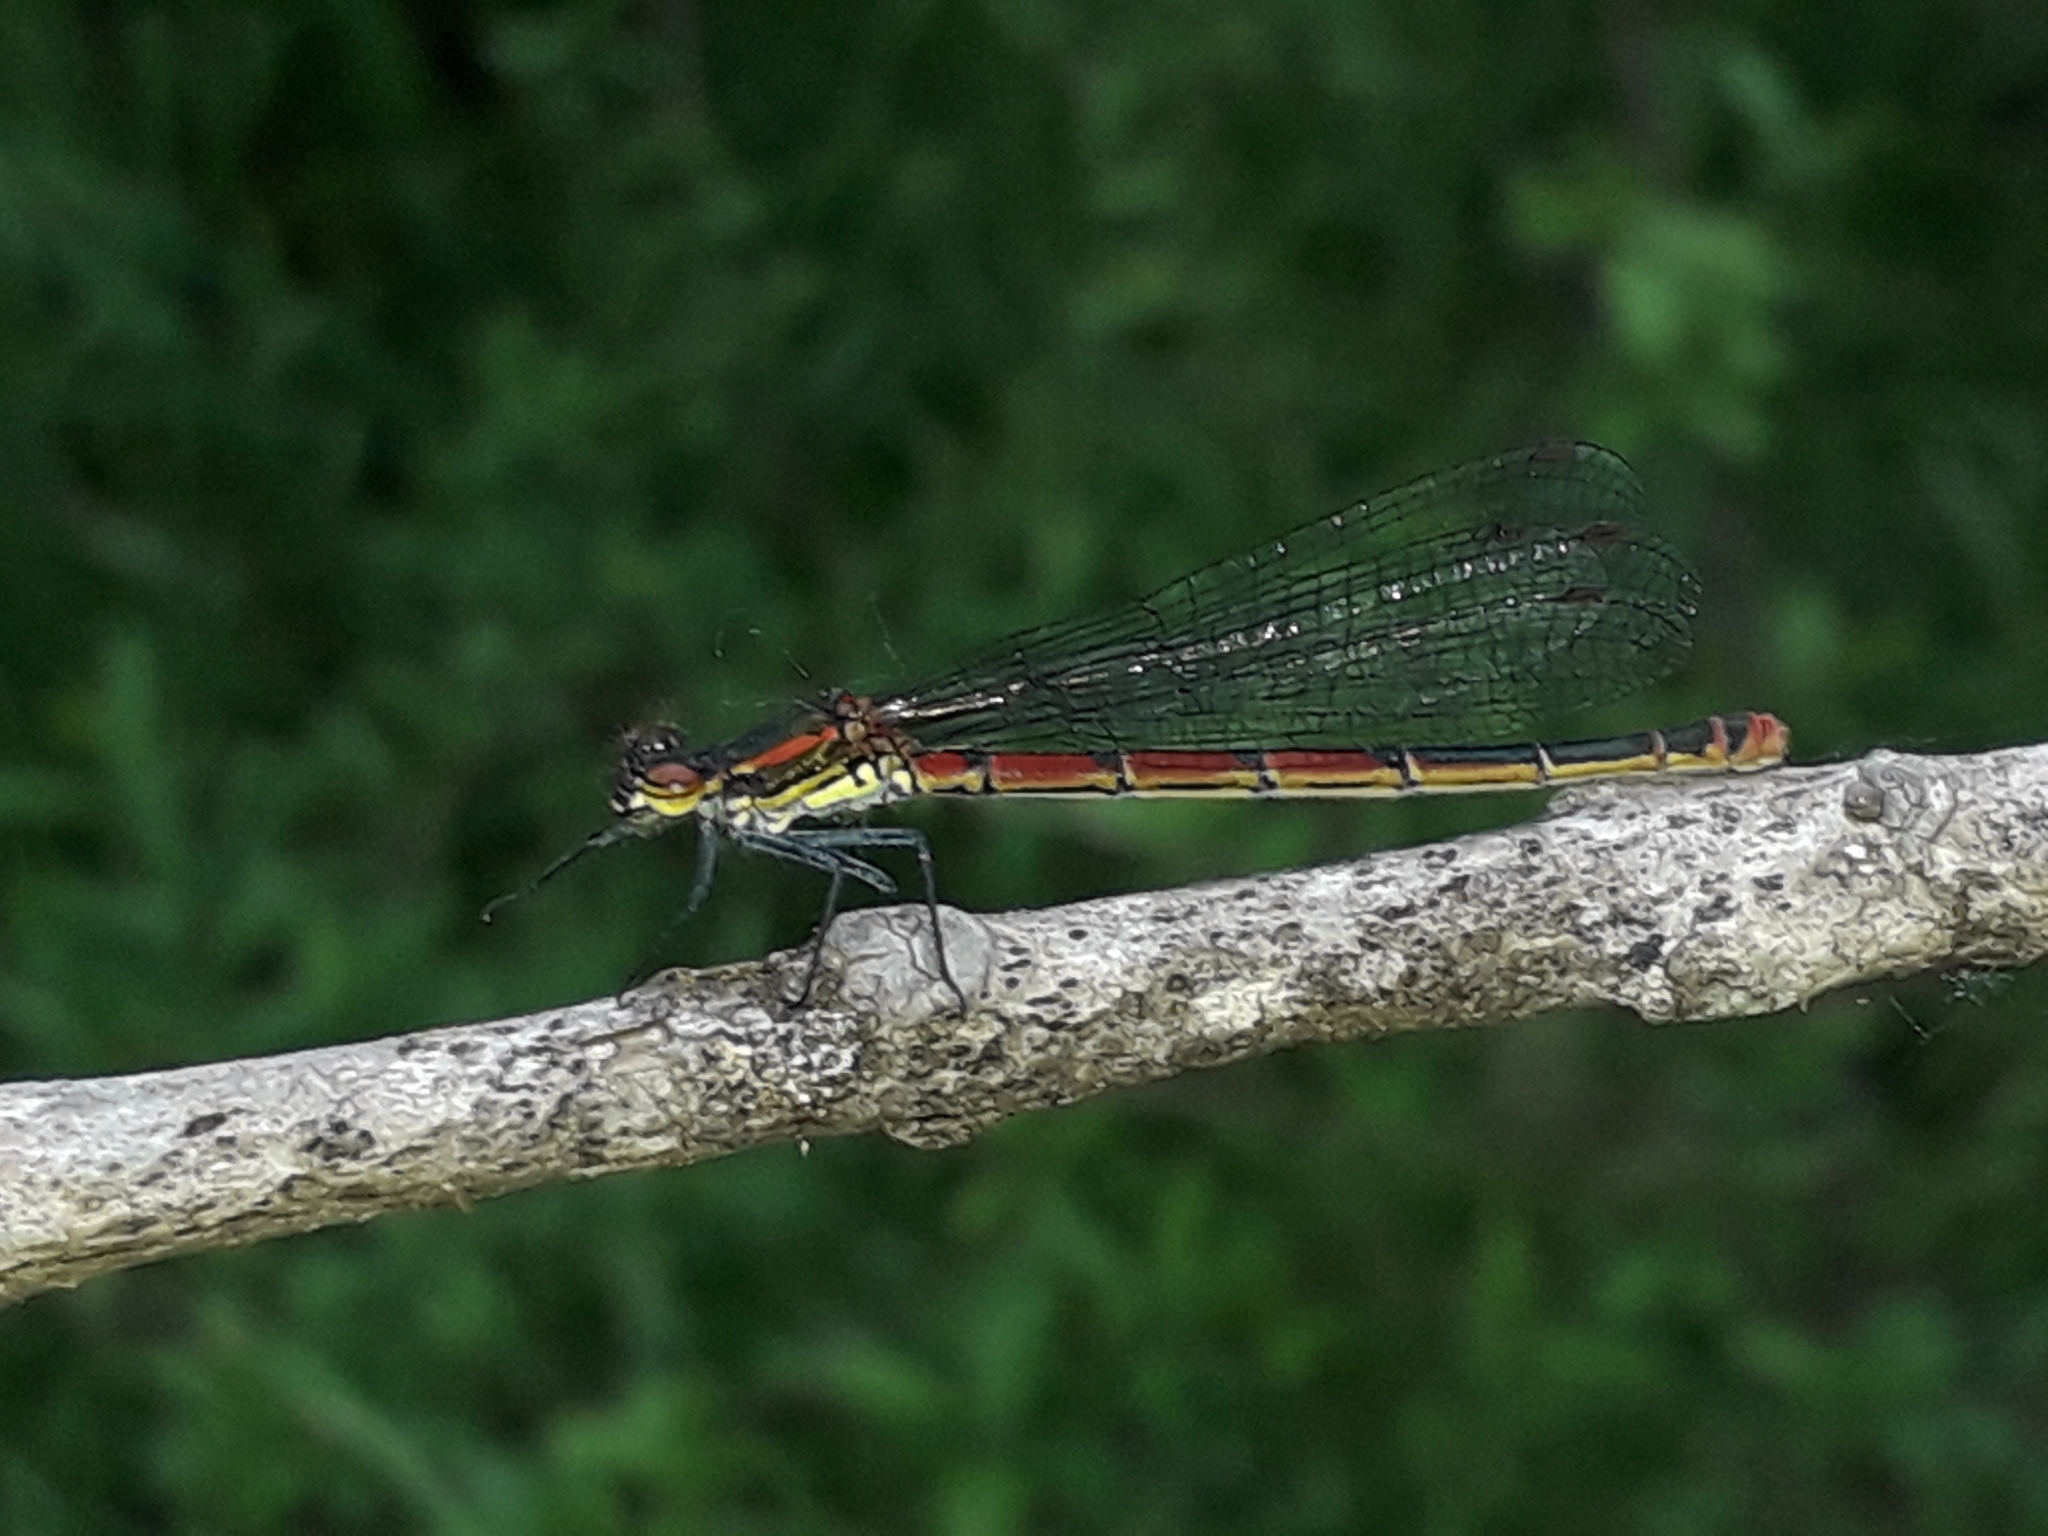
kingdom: Animalia
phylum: Arthropoda
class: Insecta
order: Odonata
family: Coenagrionidae
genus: Pyrrhosoma
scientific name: Pyrrhosoma nymphula
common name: Large red damsel
